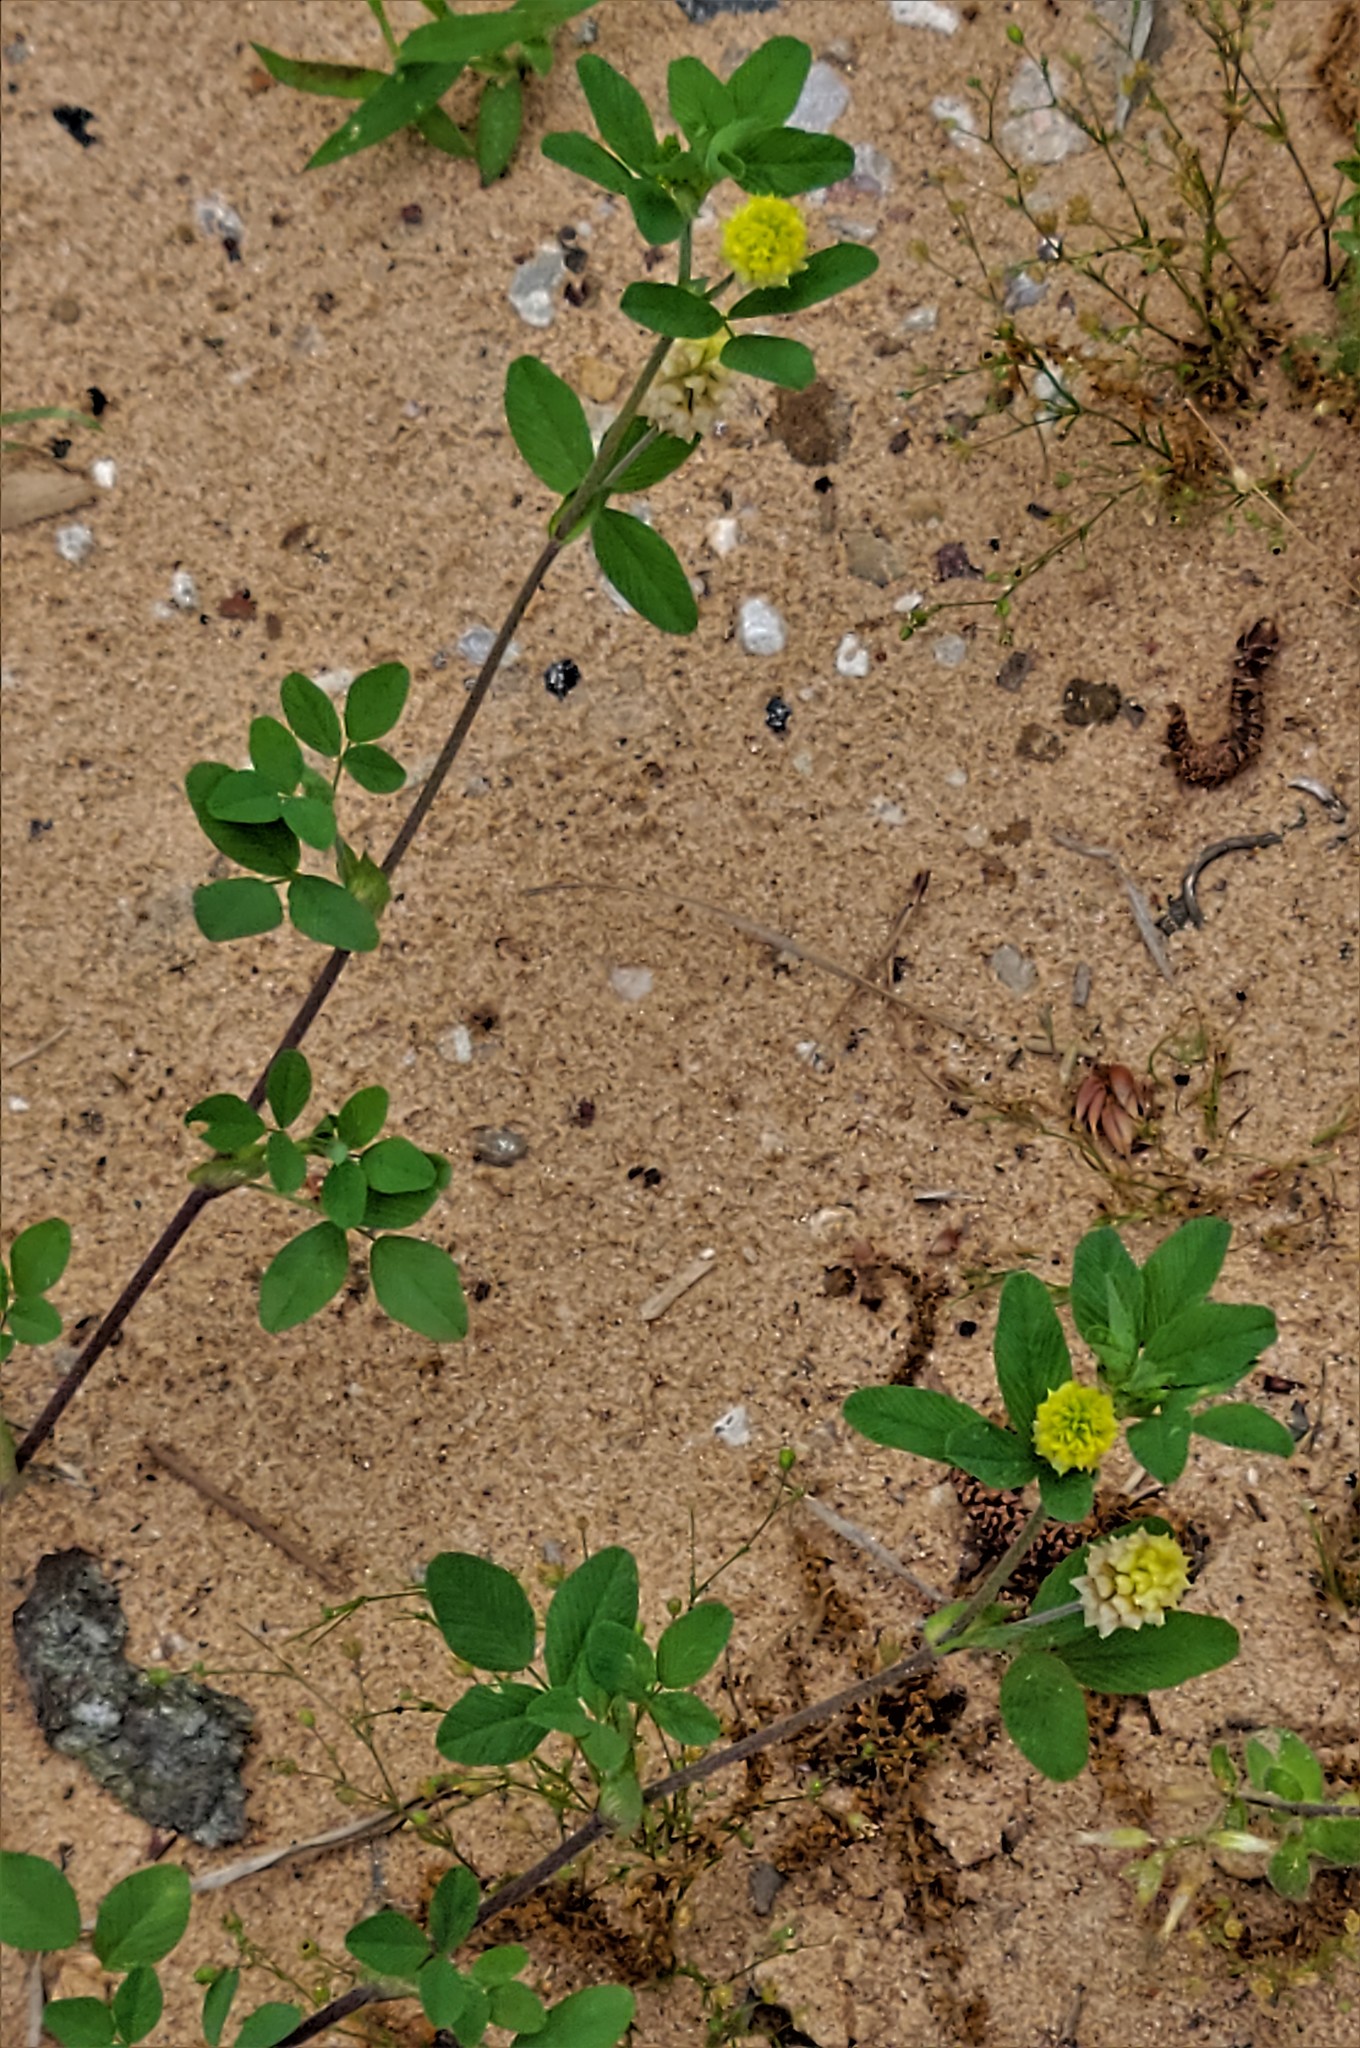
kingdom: Plantae
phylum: Tracheophyta
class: Magnoliopsida
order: Fabales
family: Fabaceae
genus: Trifolium
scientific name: Trifolium campestre
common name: Field clover
